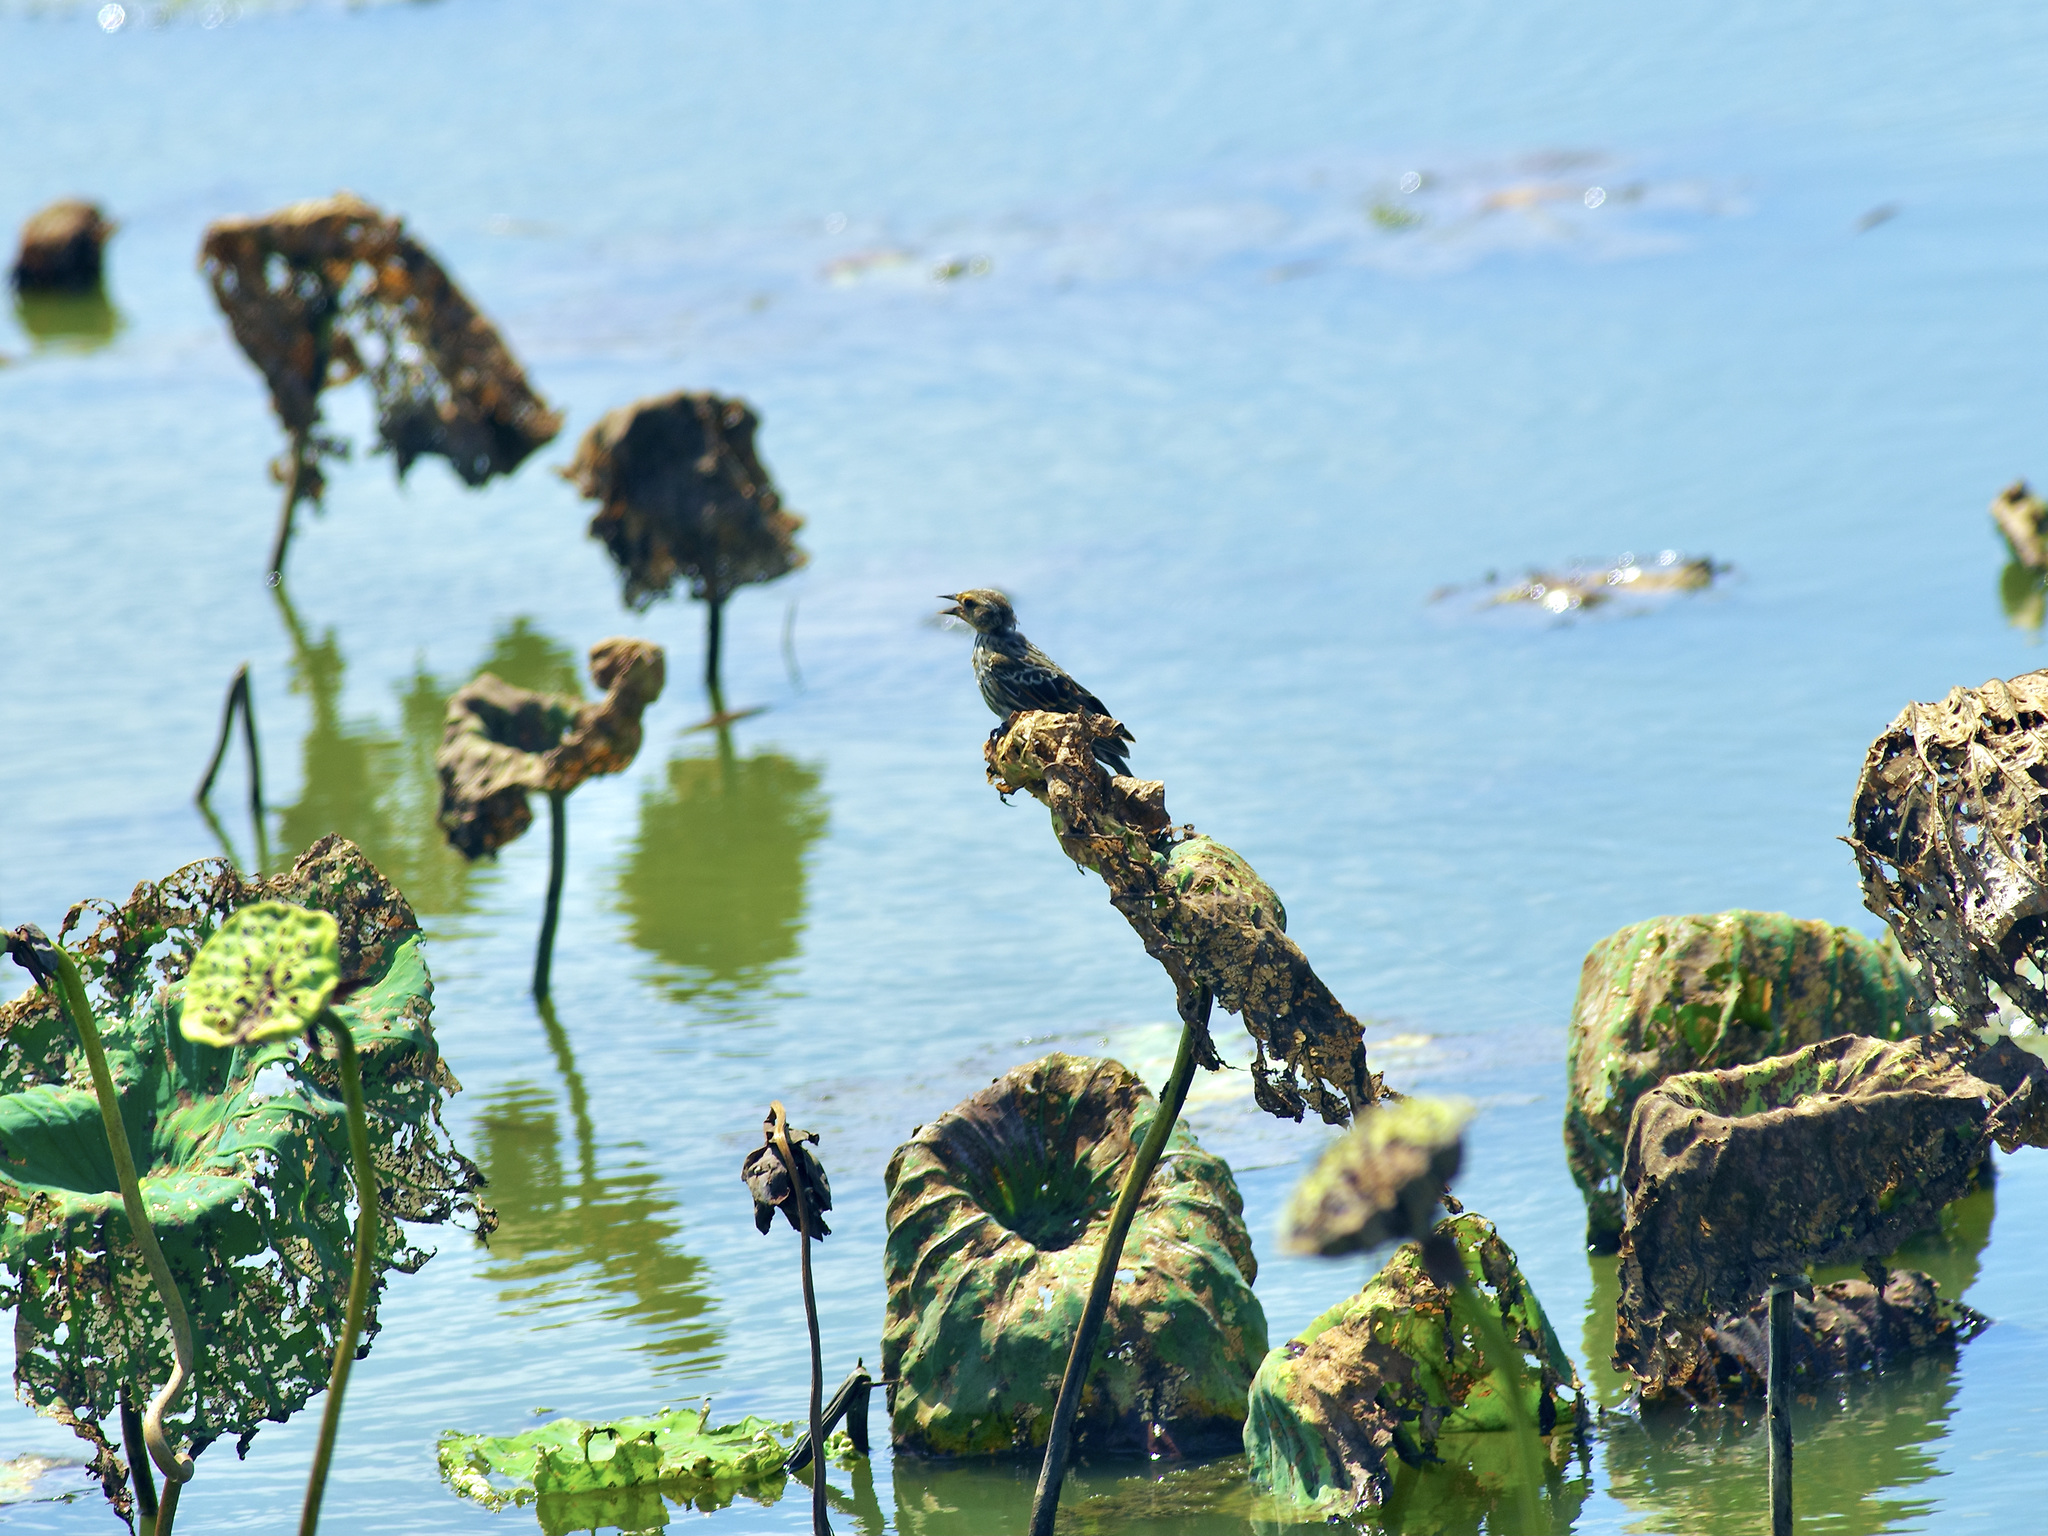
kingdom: Animalia
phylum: Chordata
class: Aves
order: Passeriformes
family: Icteridae
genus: Agelaius
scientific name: Agelaius phoeniceus
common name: Red-winged blackbird
